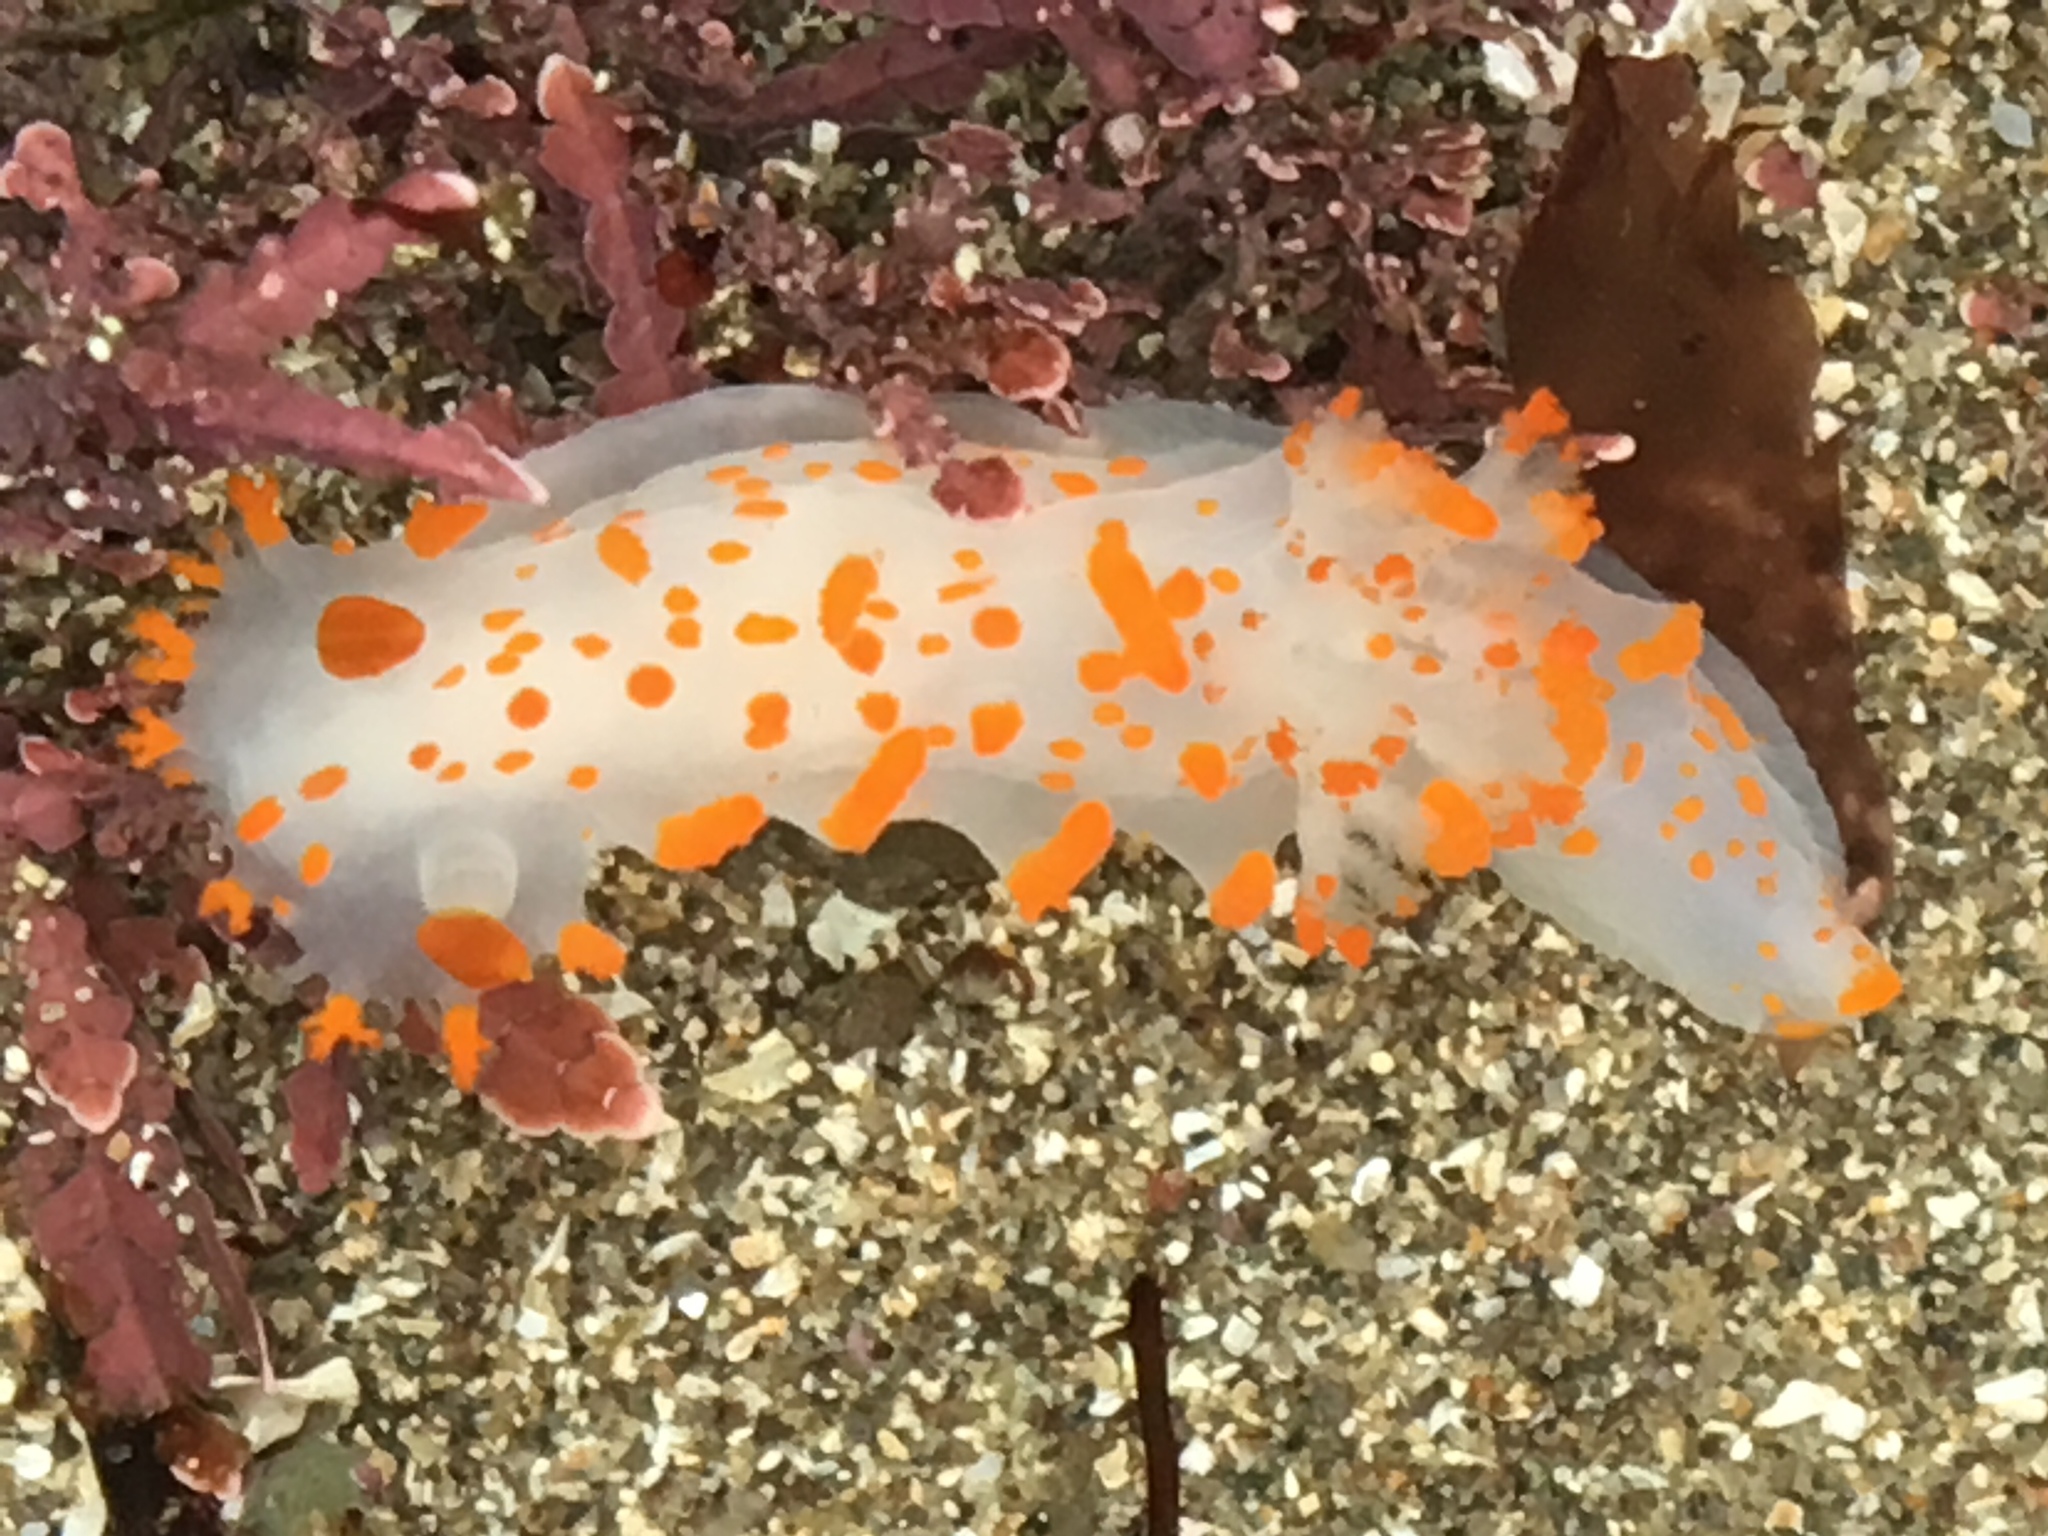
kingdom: Animalia
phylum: Mollusca
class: Gastropoda
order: Nudibranchia
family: Polyceridae
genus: Triopha
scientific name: Triopha catalinae
